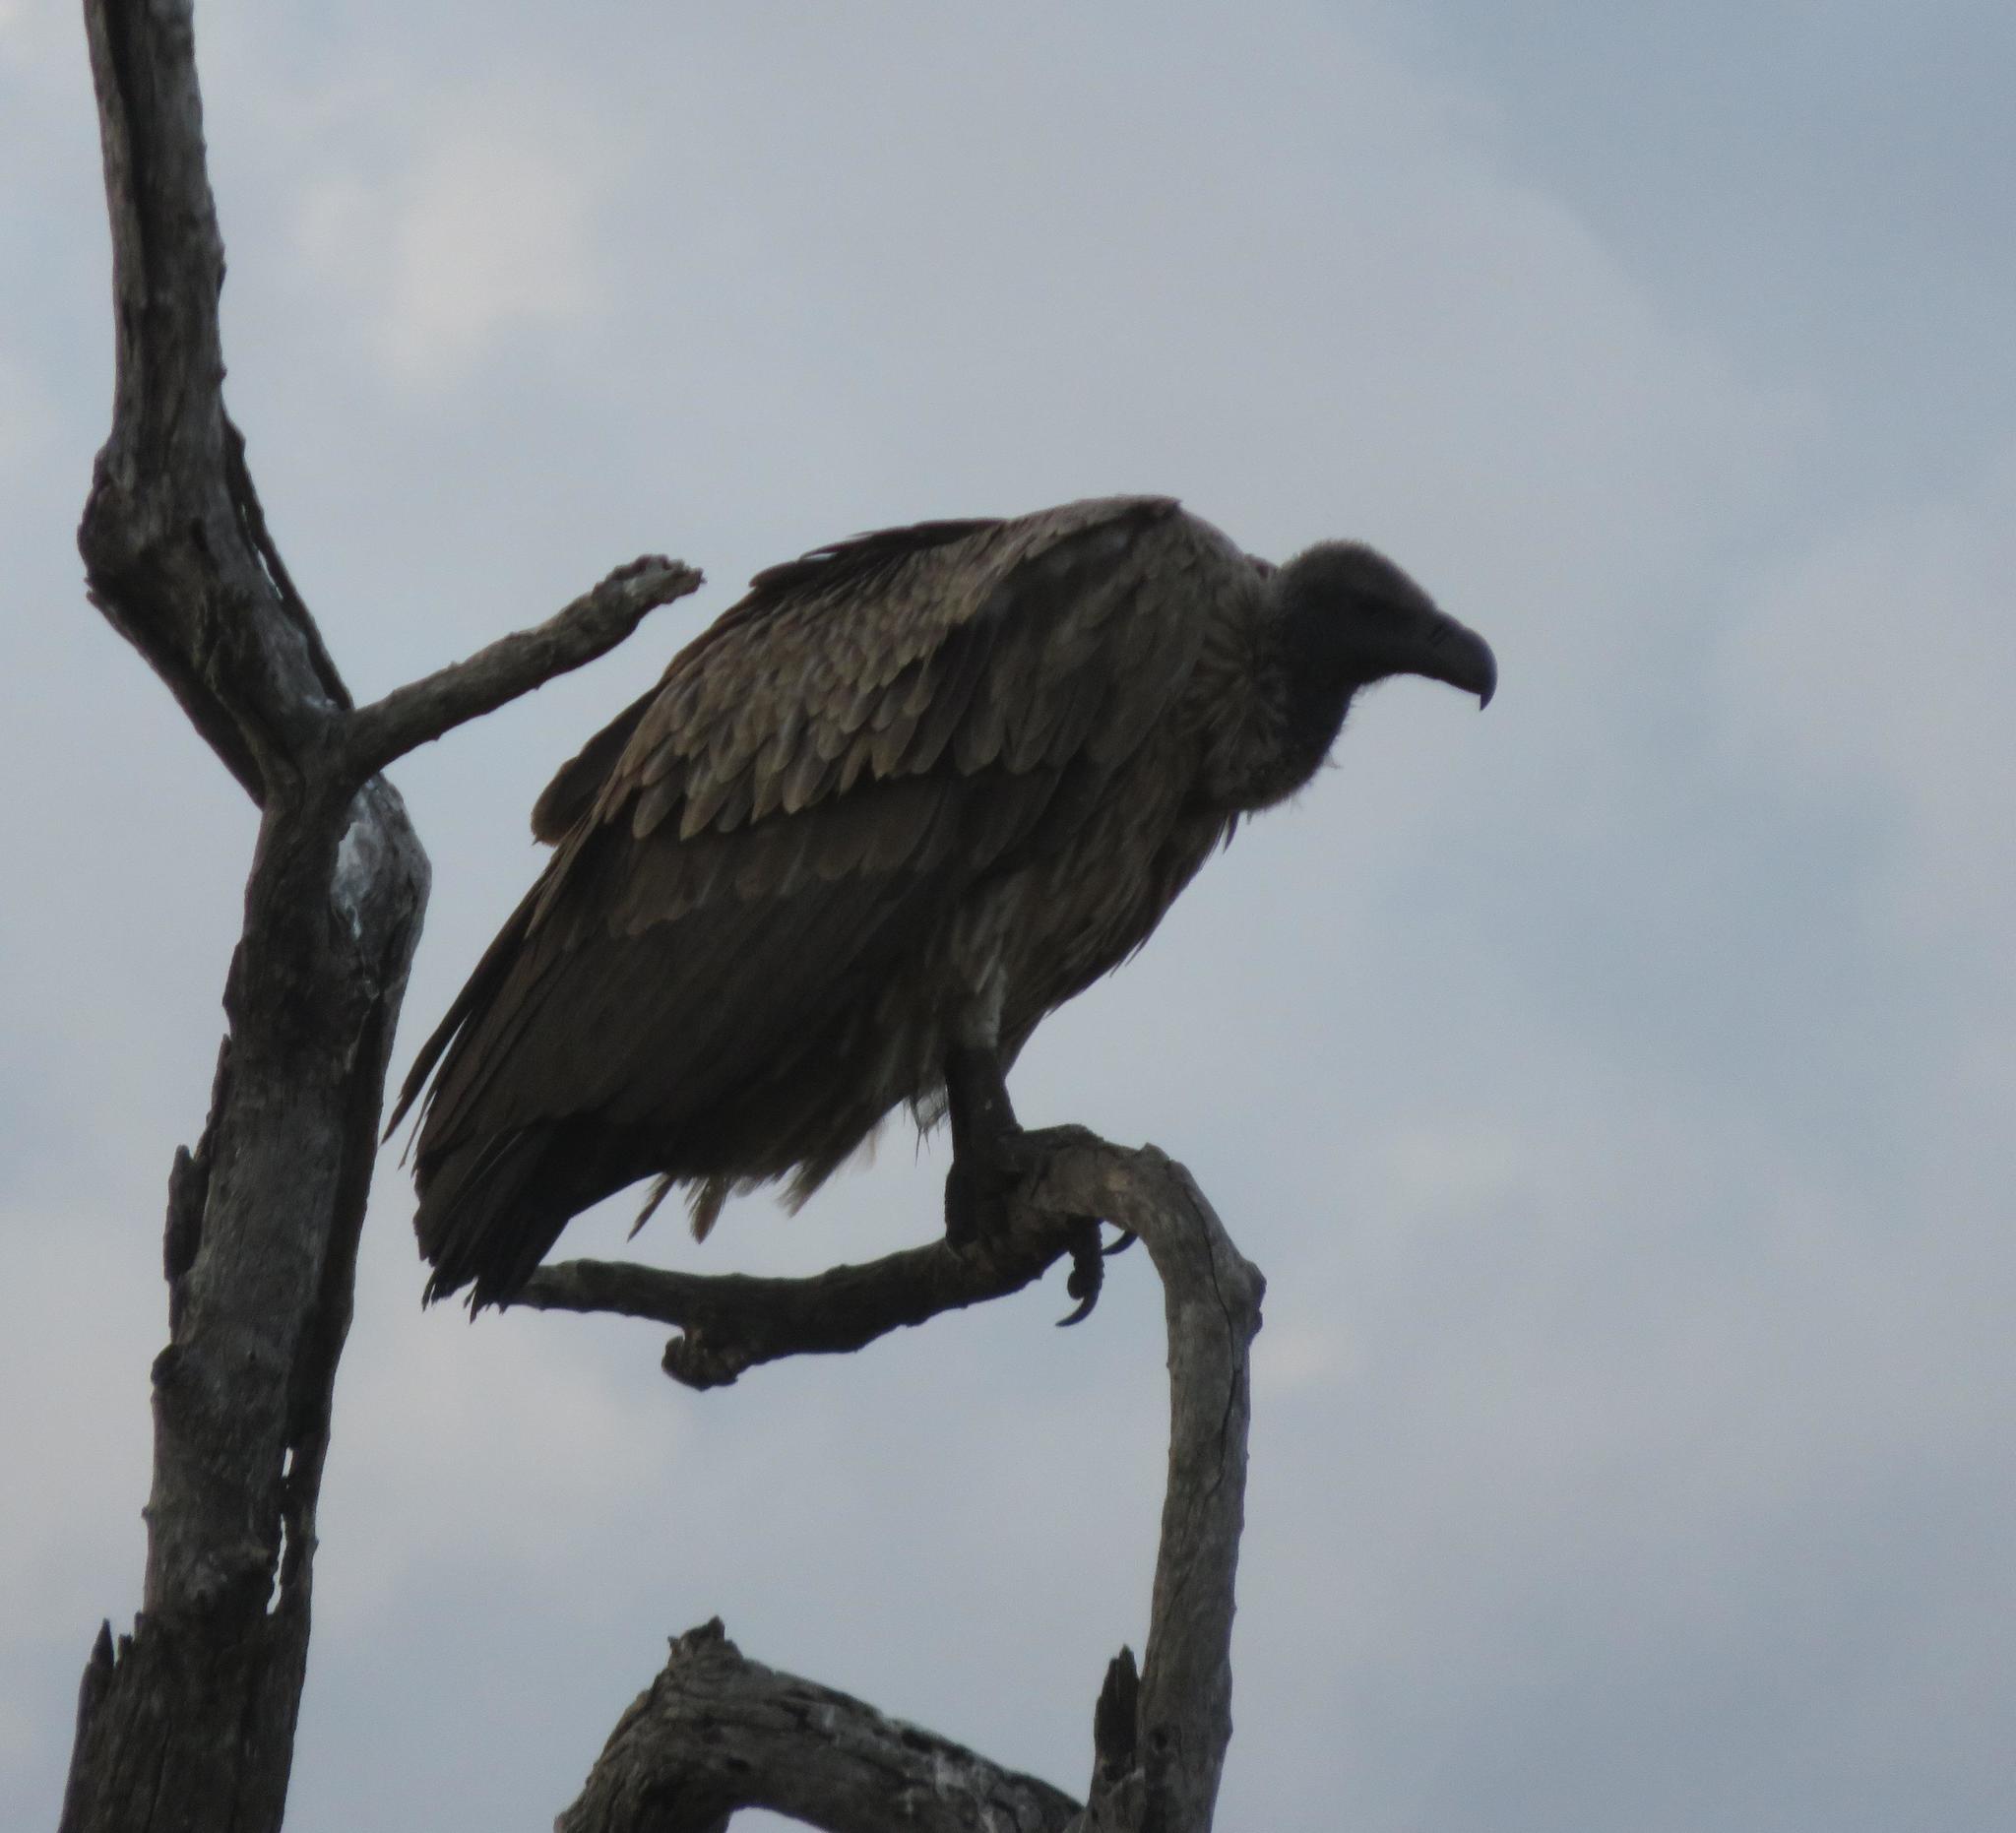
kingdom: Animalia
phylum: Chordata
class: Aves
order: Accipitriformes
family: Accipitridae
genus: Gyps
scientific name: Gyps africanus
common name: White-backed vulture
